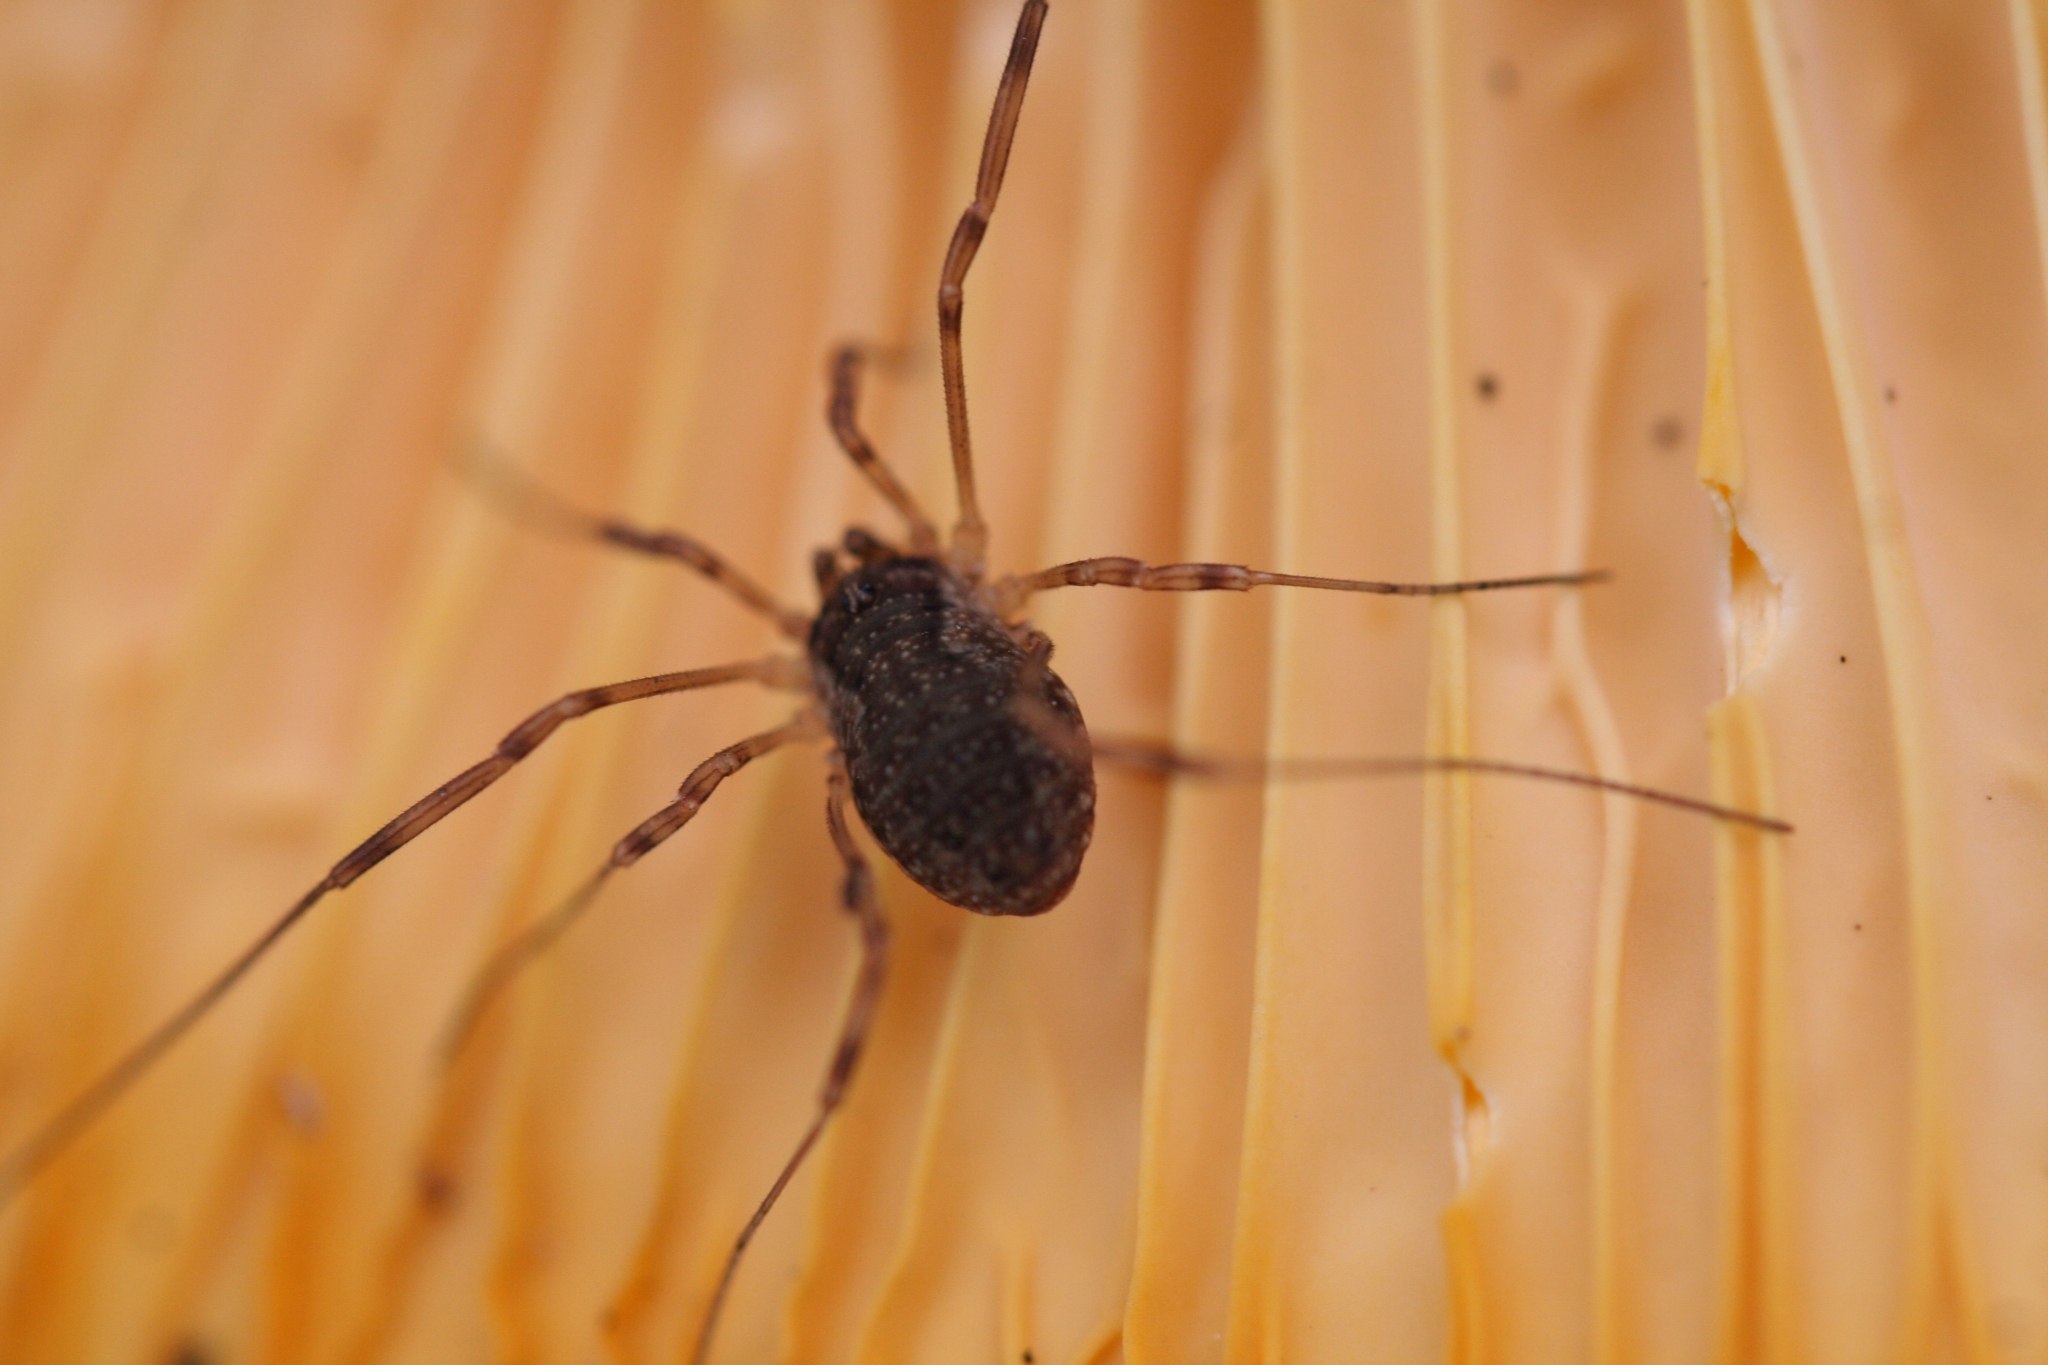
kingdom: Animalia
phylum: Arthropoda
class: Arachnida
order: Opiliones
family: Phalangiidae
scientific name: Phalangiidae
